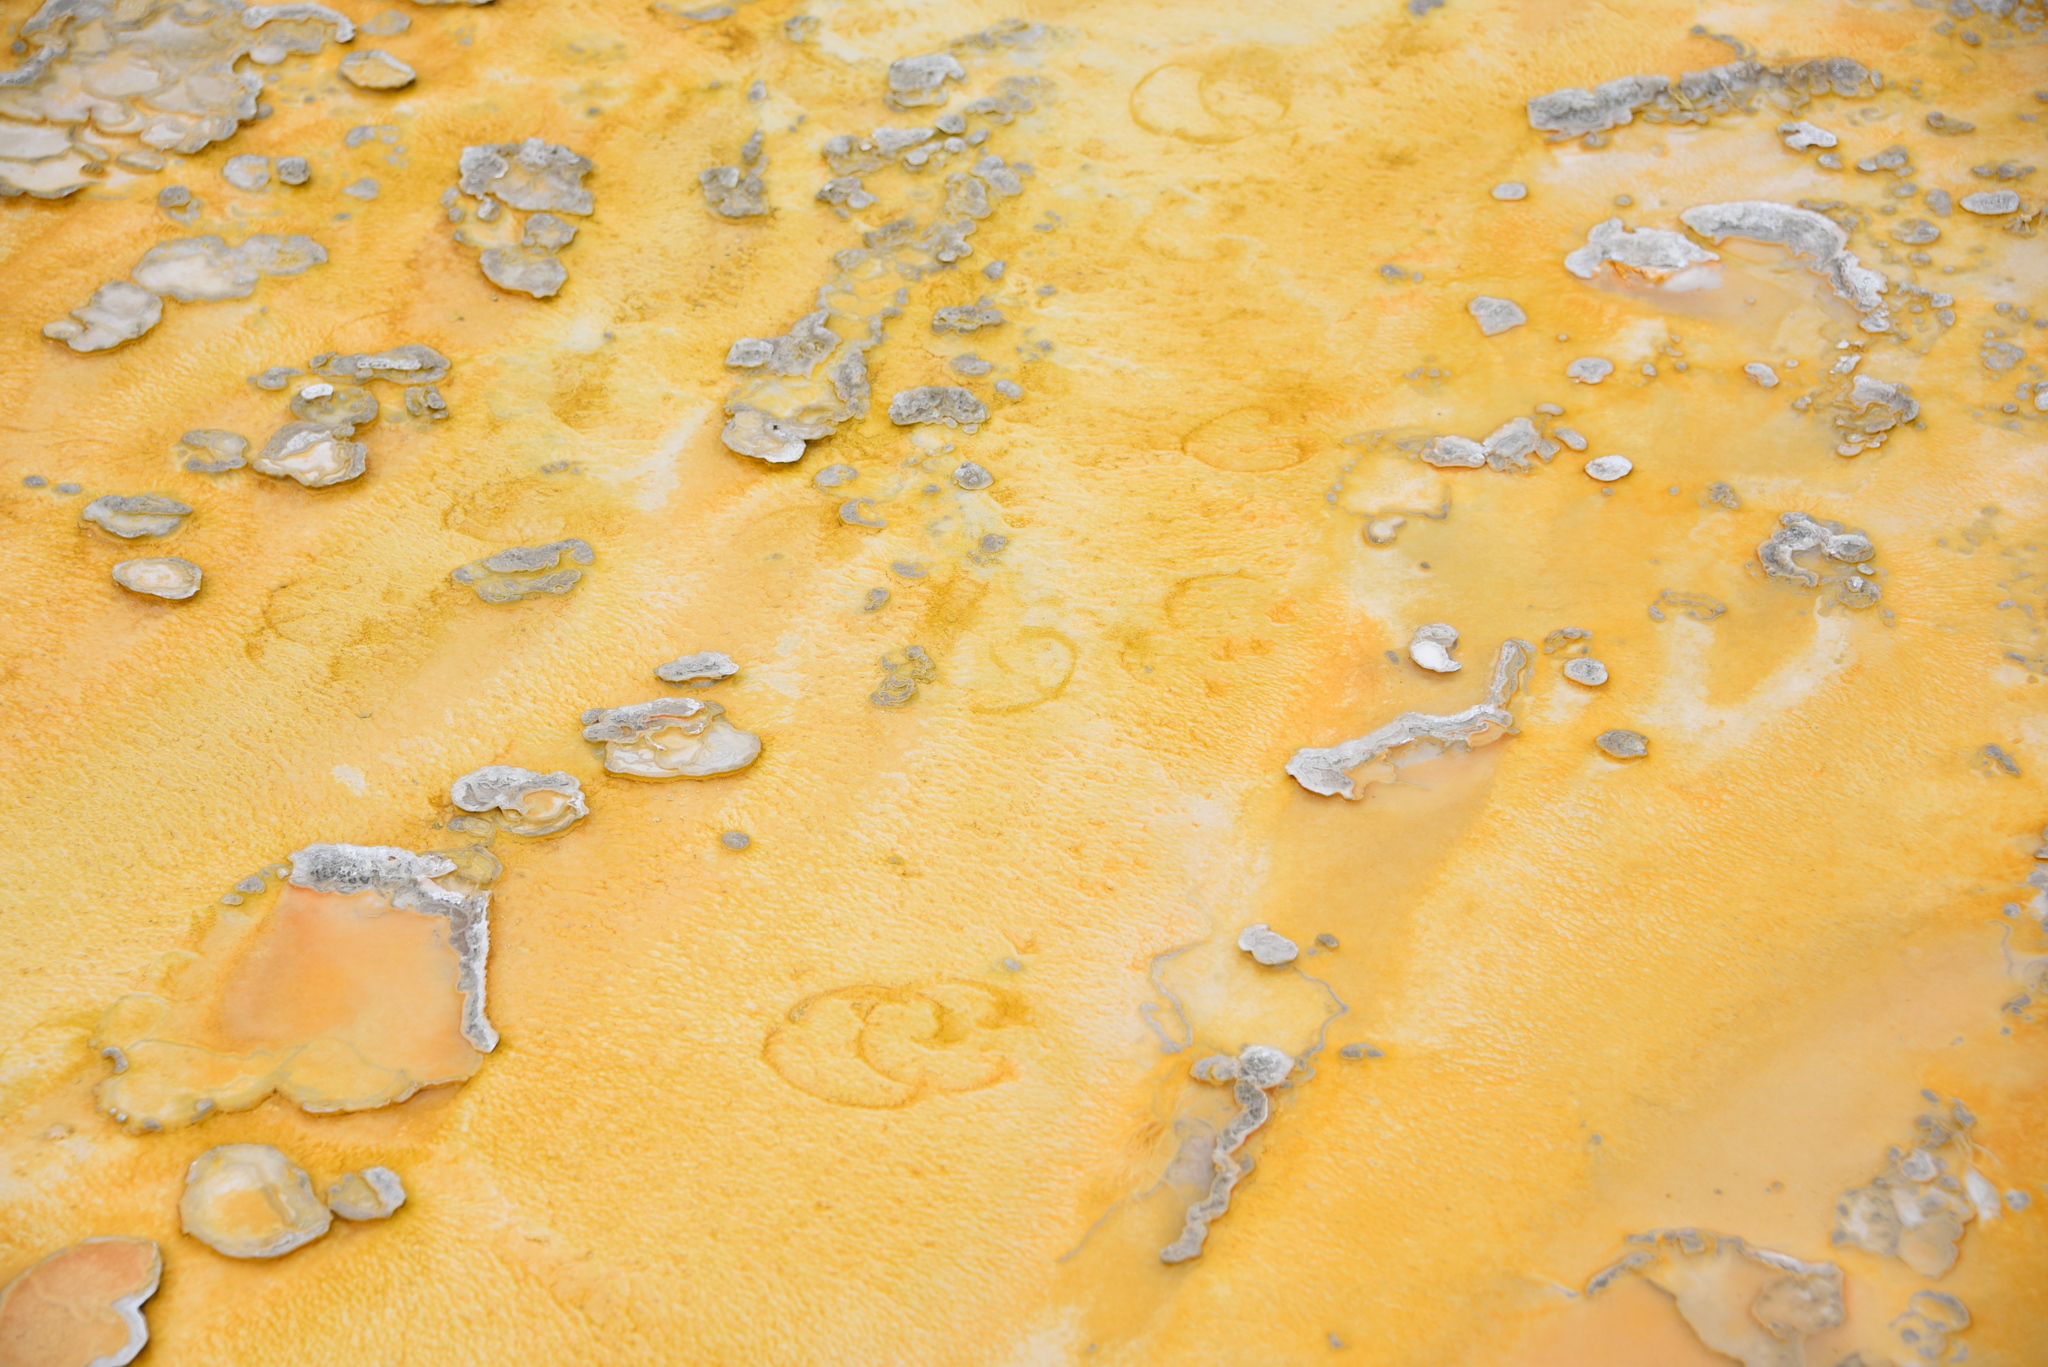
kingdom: Animalia
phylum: Chordata
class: Mammalia
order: Artiodactyla
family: Bovidae
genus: Bison
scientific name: Bison bison
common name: American bison
